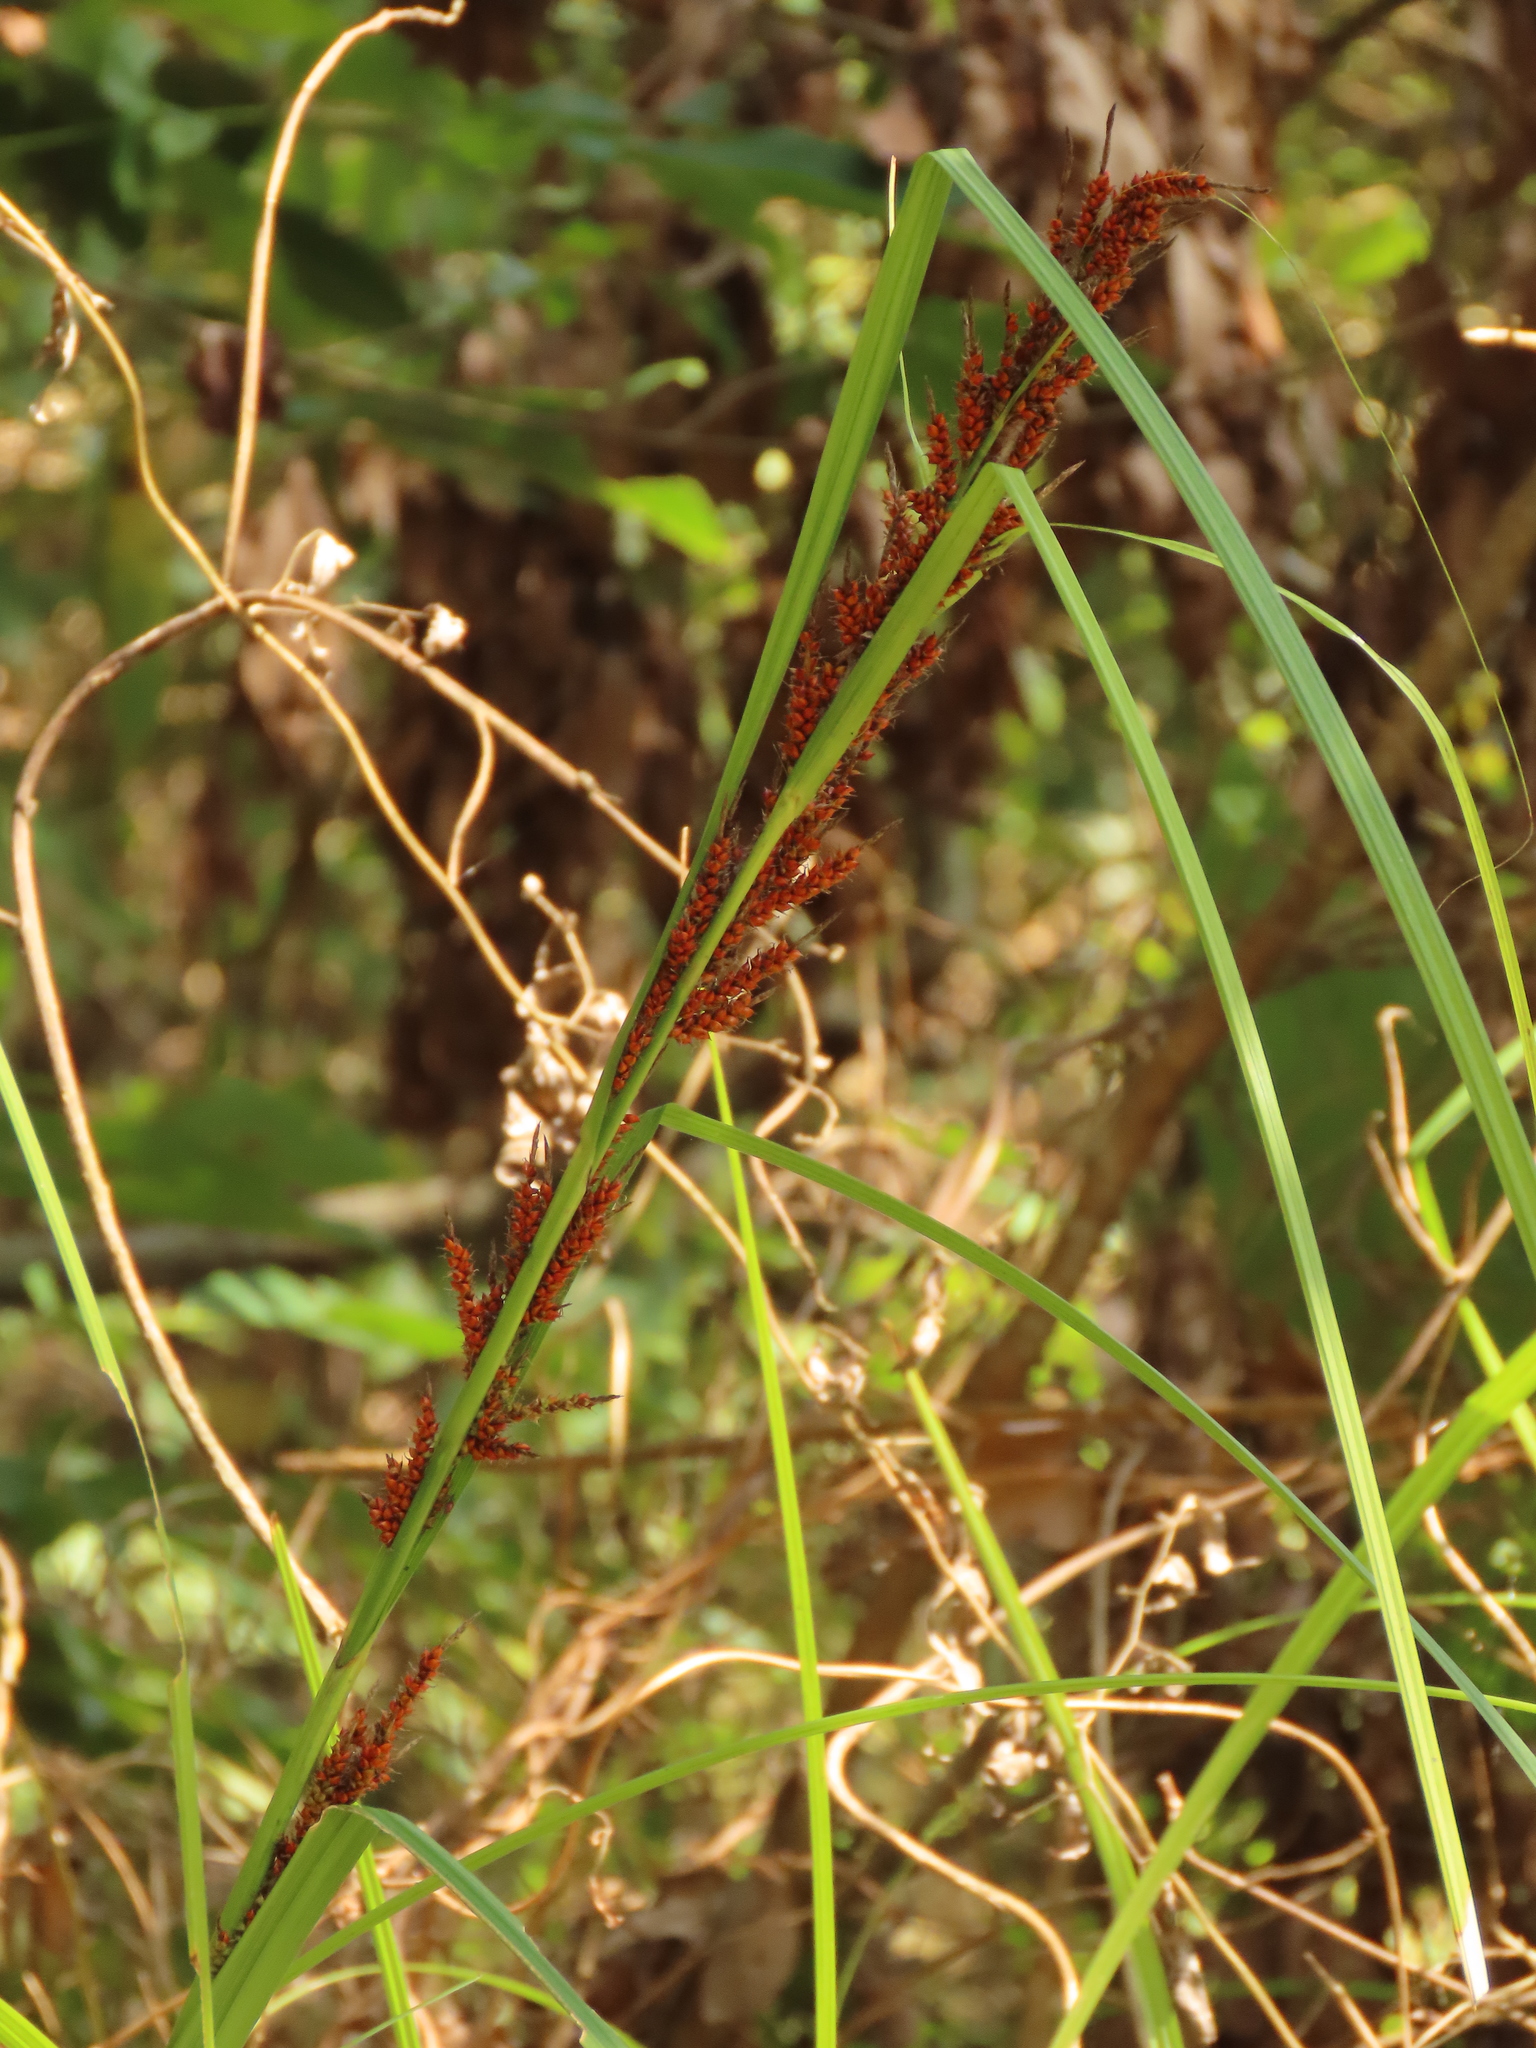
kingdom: Plantae
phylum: Tracheophyta
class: Liliopsida
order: Poales
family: Cyperaceae
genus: Carex
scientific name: Carex baccans
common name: Crimson seeded sedge
